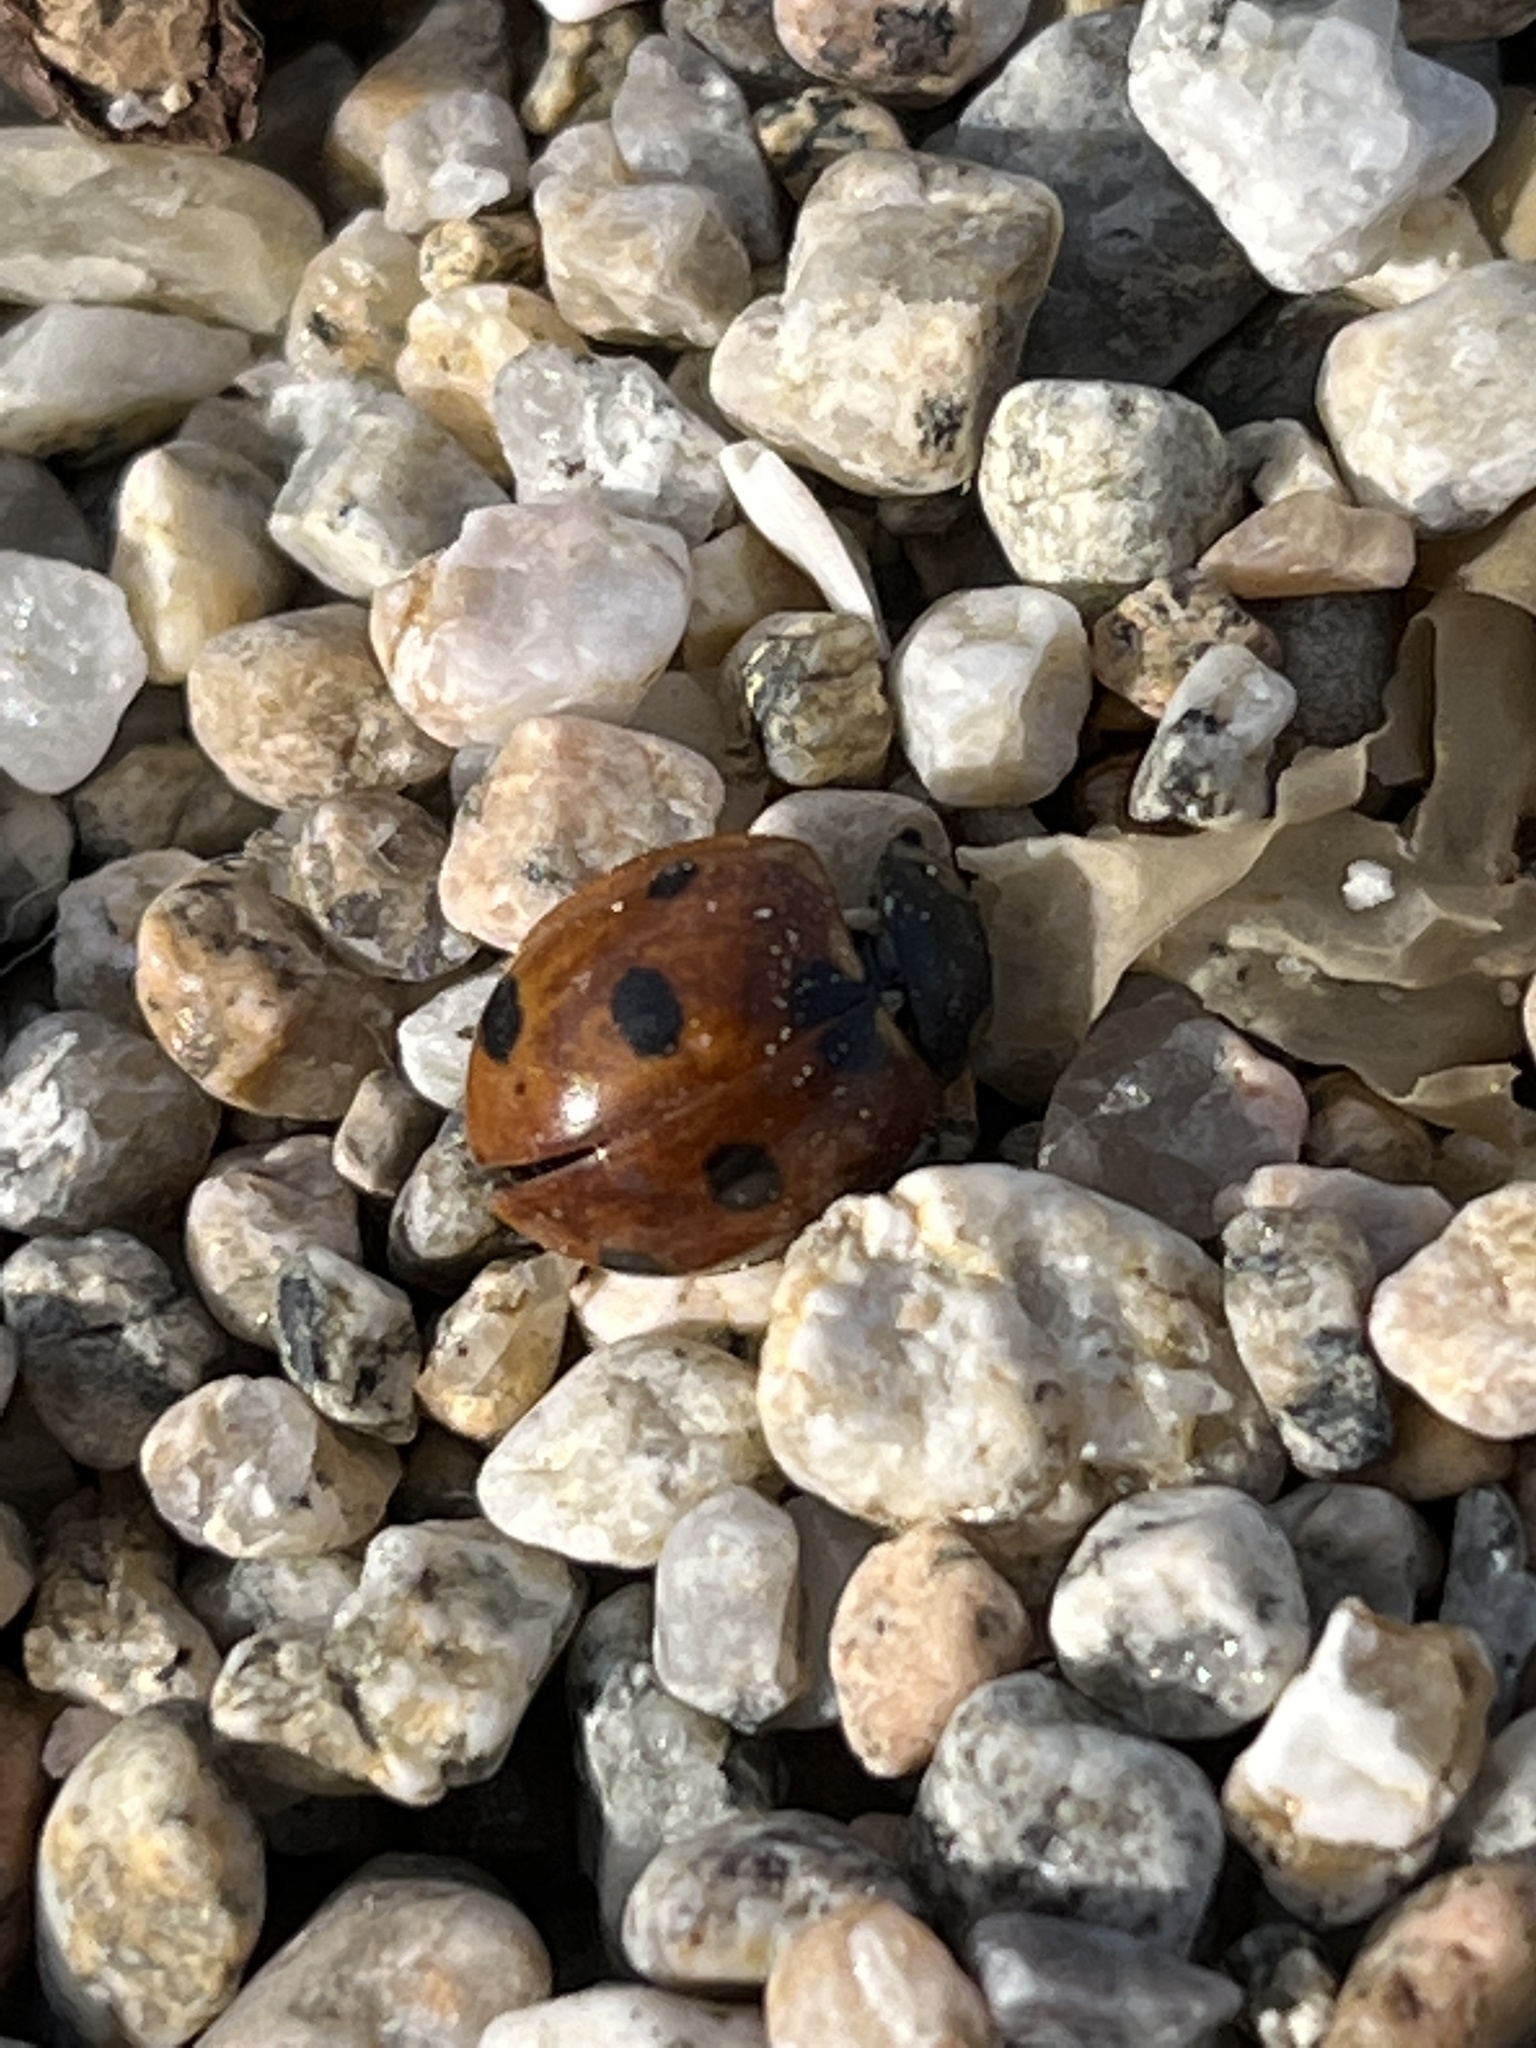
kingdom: Animalia
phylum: Arthropoda
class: Insecta
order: Coleoptera
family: Coccinellidae
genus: Coccinella
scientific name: Coccinella septempunctata
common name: Sevenspotted lady beetle
